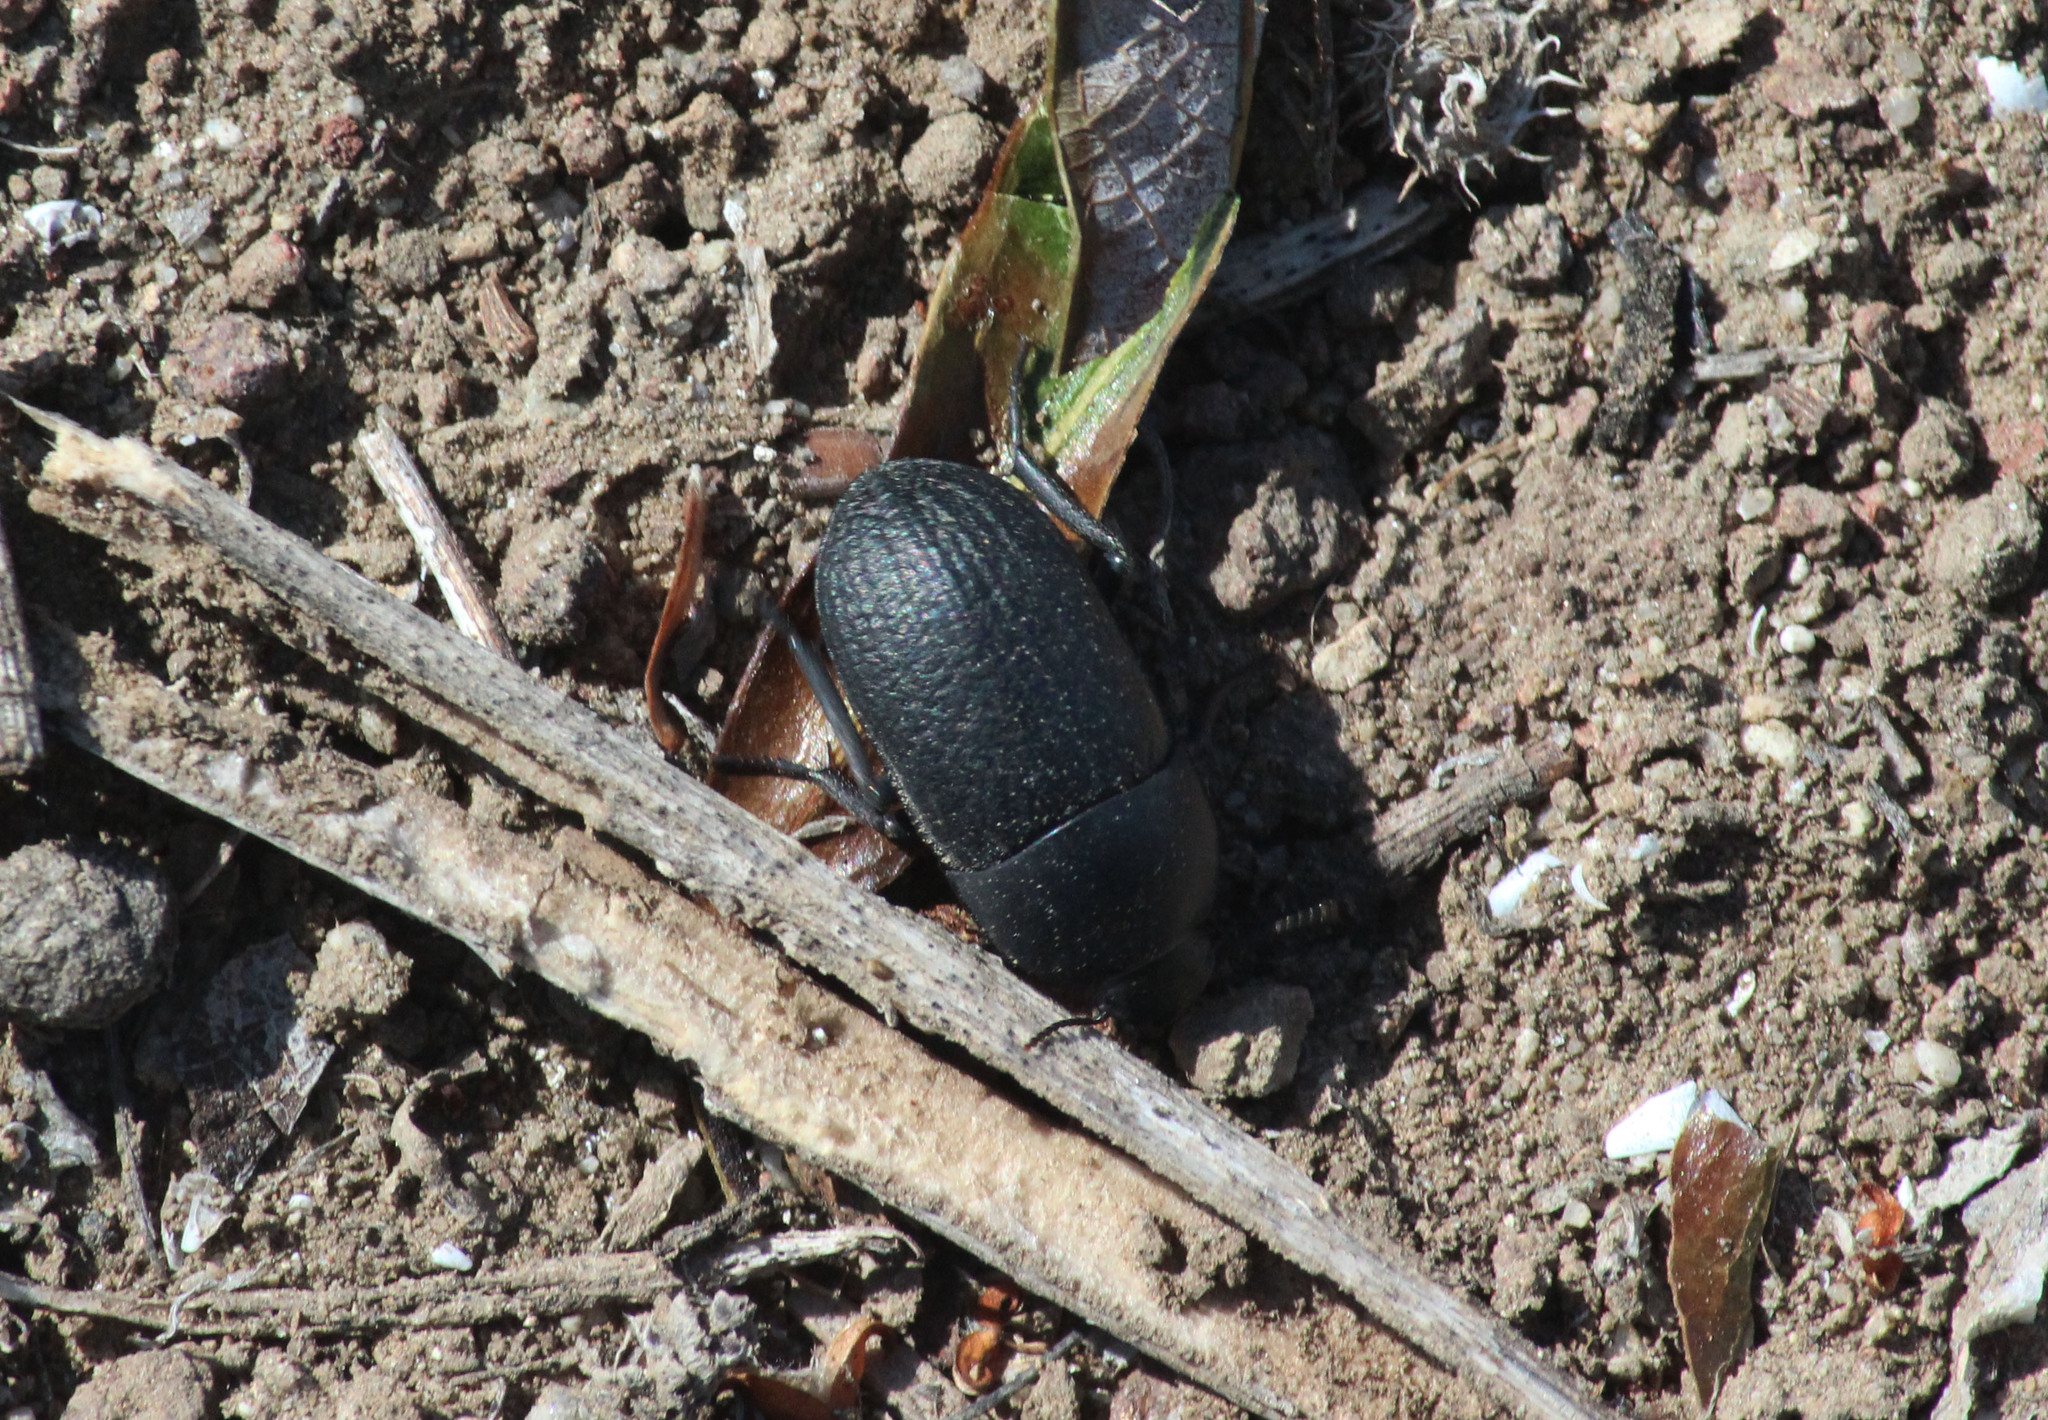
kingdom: Animalia
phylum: Arthropoda
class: Insecta
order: Coleoptera
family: Tenebrionidae
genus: Coniontis
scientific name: Coniontis
